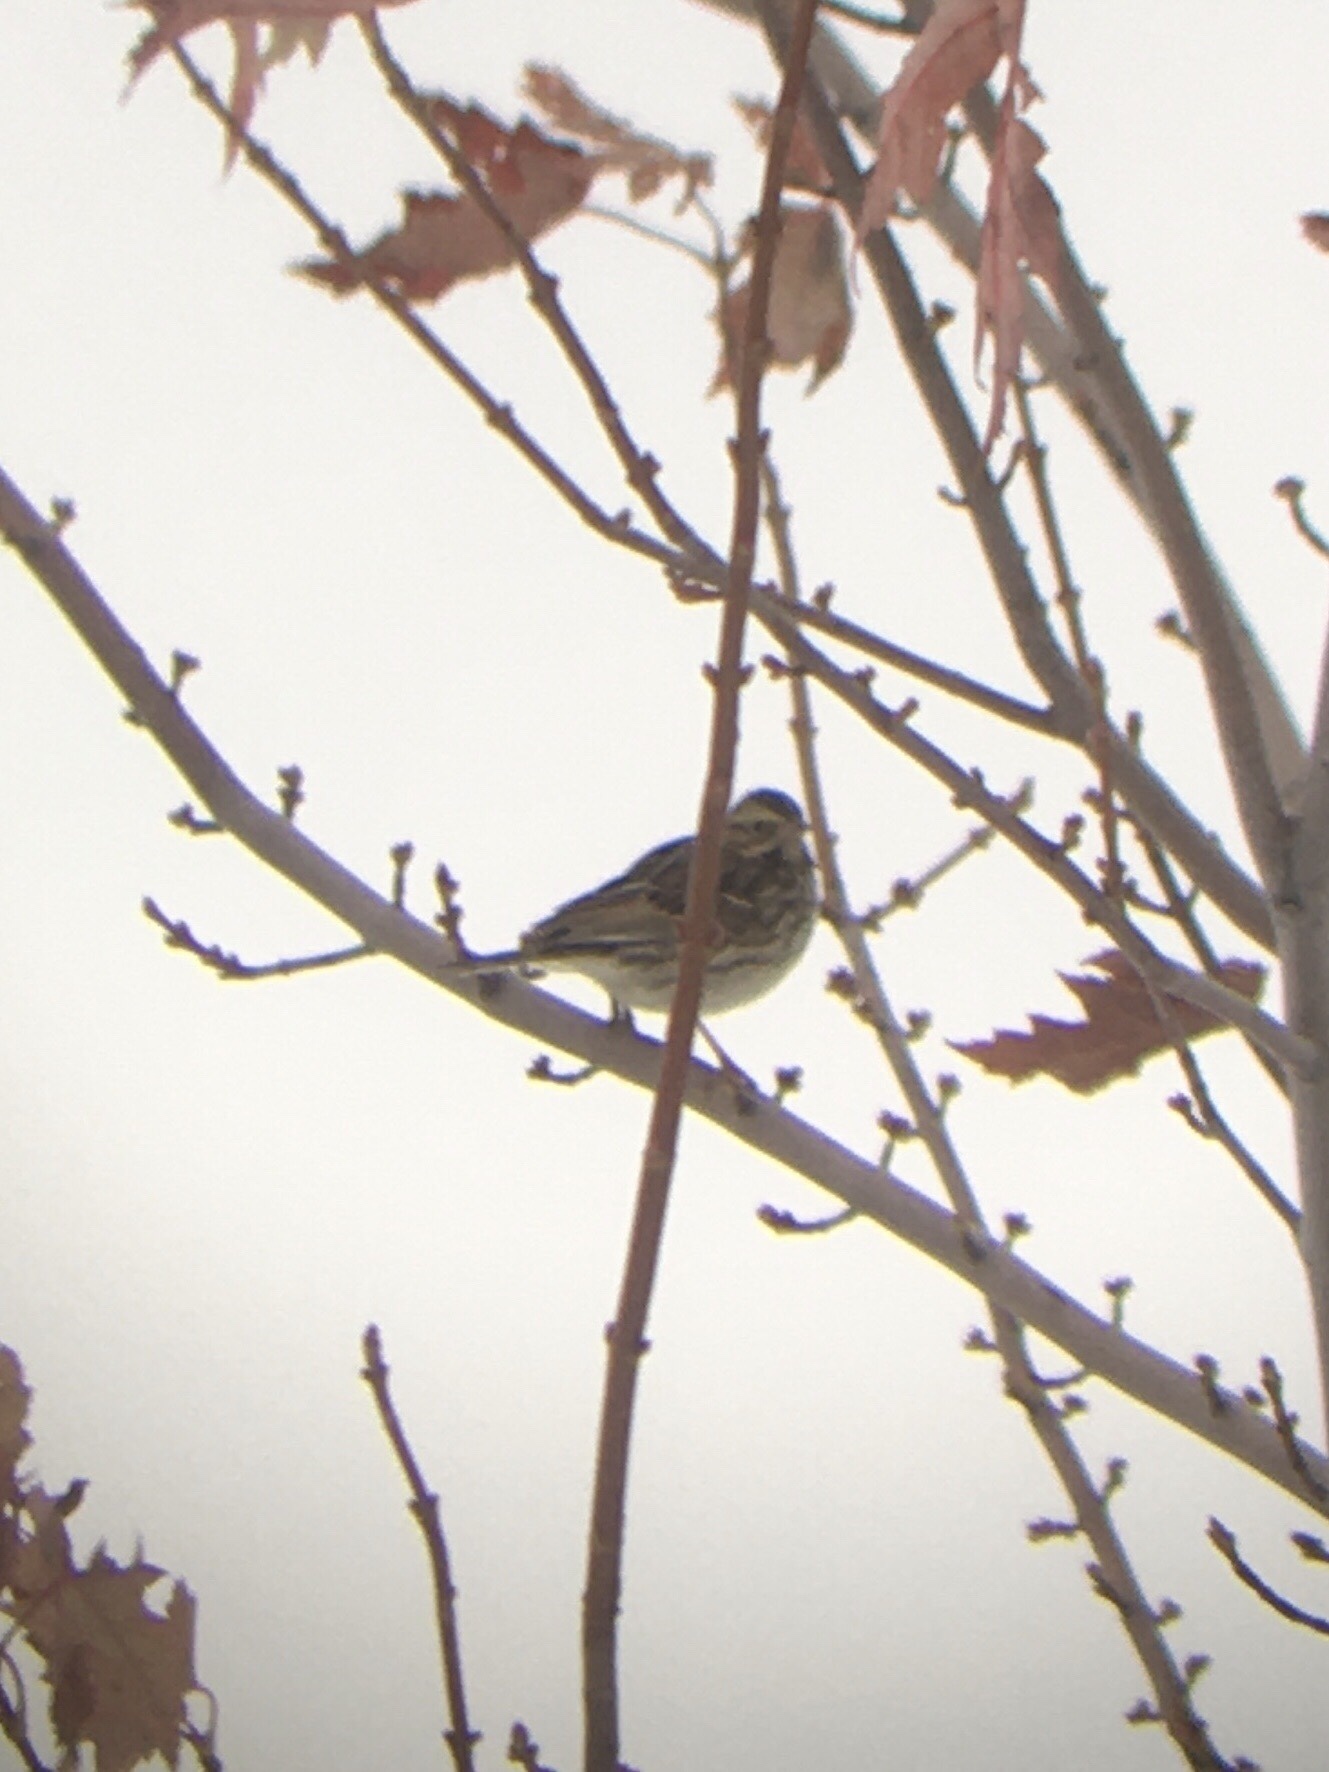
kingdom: Animalia
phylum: Chordata
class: Aves
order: Passeriformes
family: Passerellidae
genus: Passerculus
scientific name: Passerculus sandwichensis
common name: Savannah sparrow
